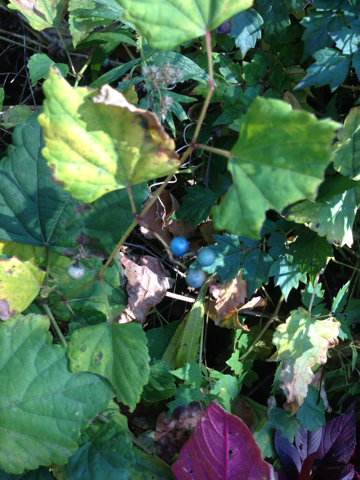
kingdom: Plantae
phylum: Tracheophyta
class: Magnoliopsida
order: Vitales
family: Vitaceae
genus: Ampelopsis
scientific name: Ampelopsis glandulosa
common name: Amur peppervine
